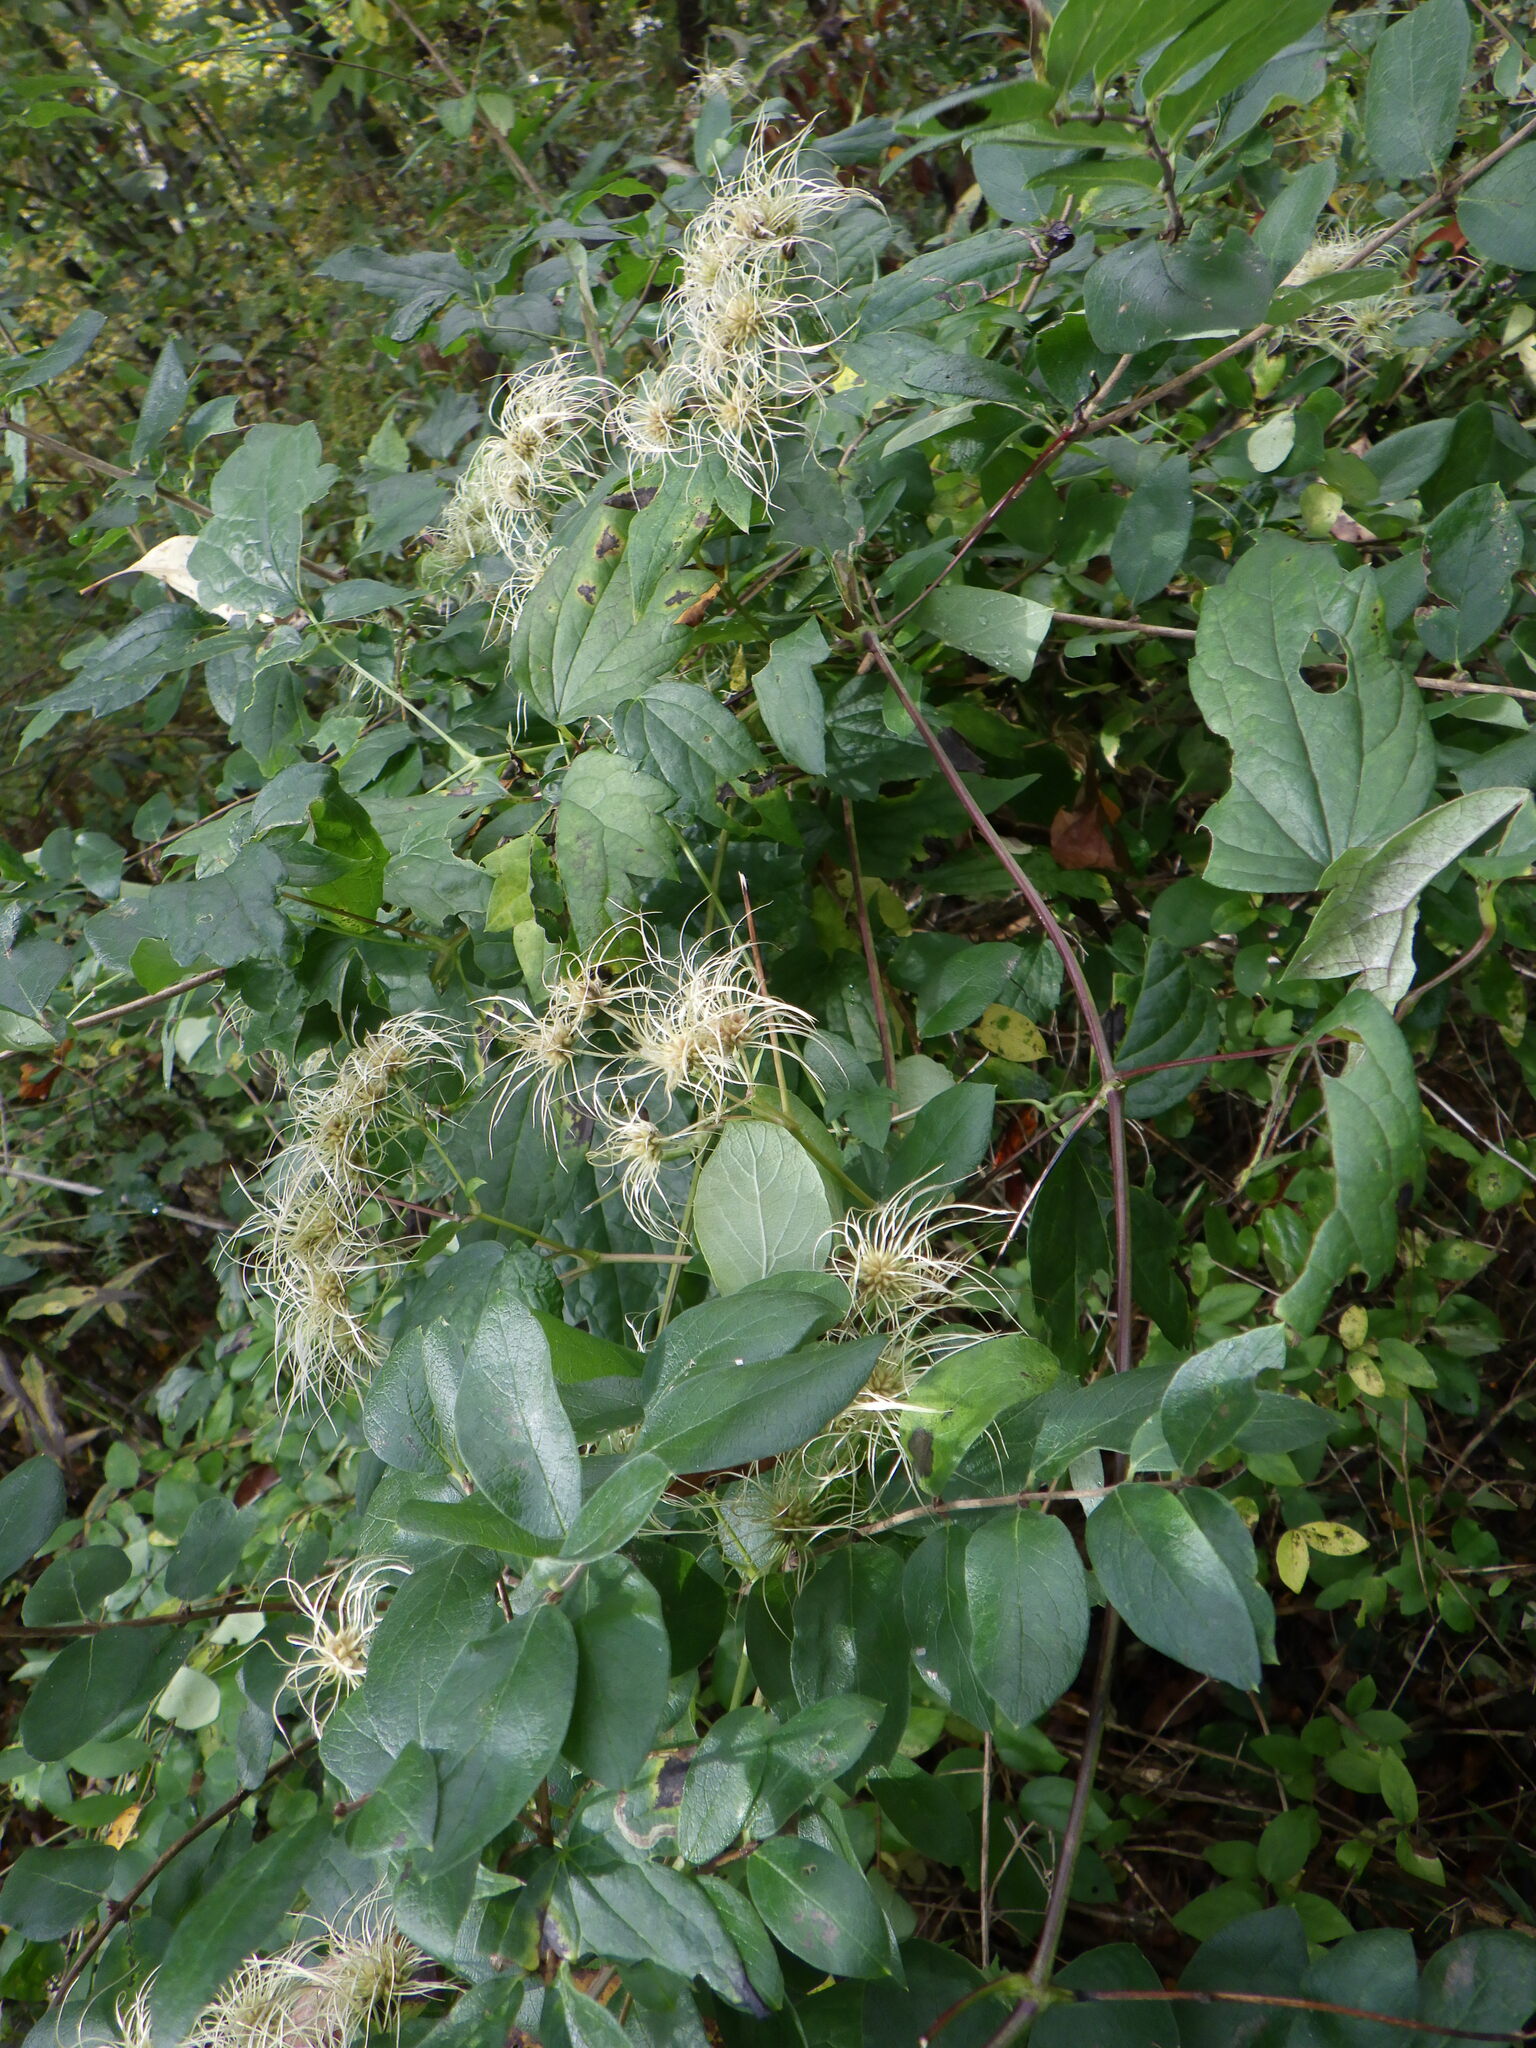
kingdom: Plantae
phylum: Tracheophyta
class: Magnoliopsida
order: Ranunculales
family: Ranunculaceae
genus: Clematis
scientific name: Clematis virginiana
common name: Virgin's-bower
